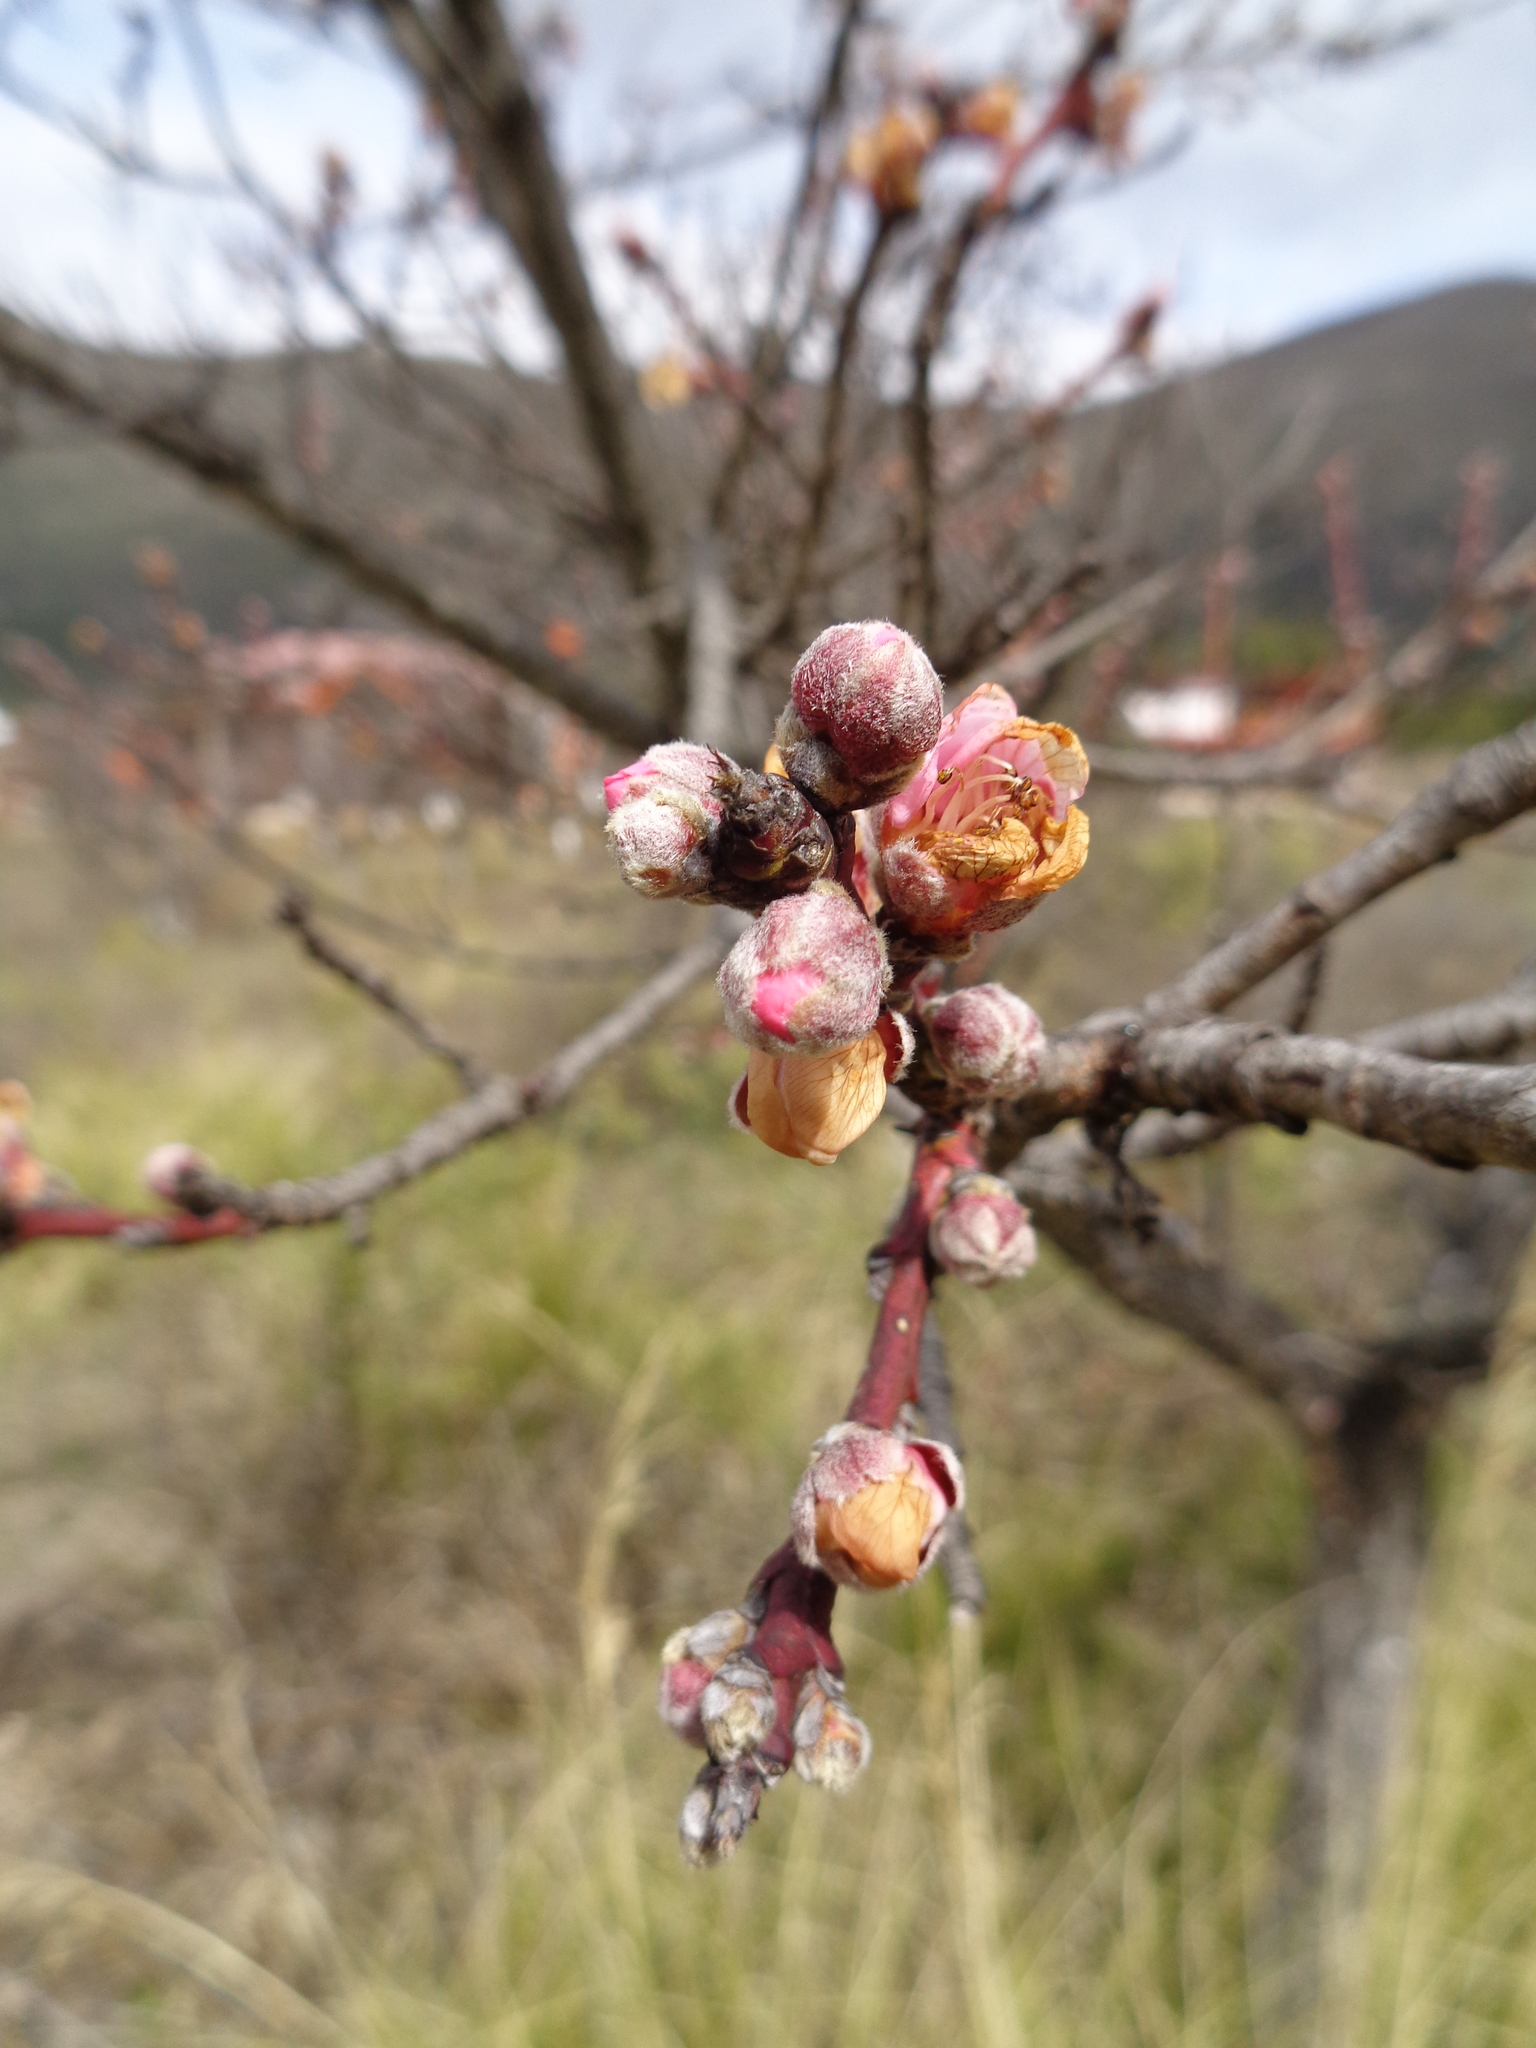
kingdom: Plantae
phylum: Tracheophyta
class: Magnoliopsida
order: Rosales
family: Rosaceae
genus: Prunus
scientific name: Prunus persica
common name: Peach
